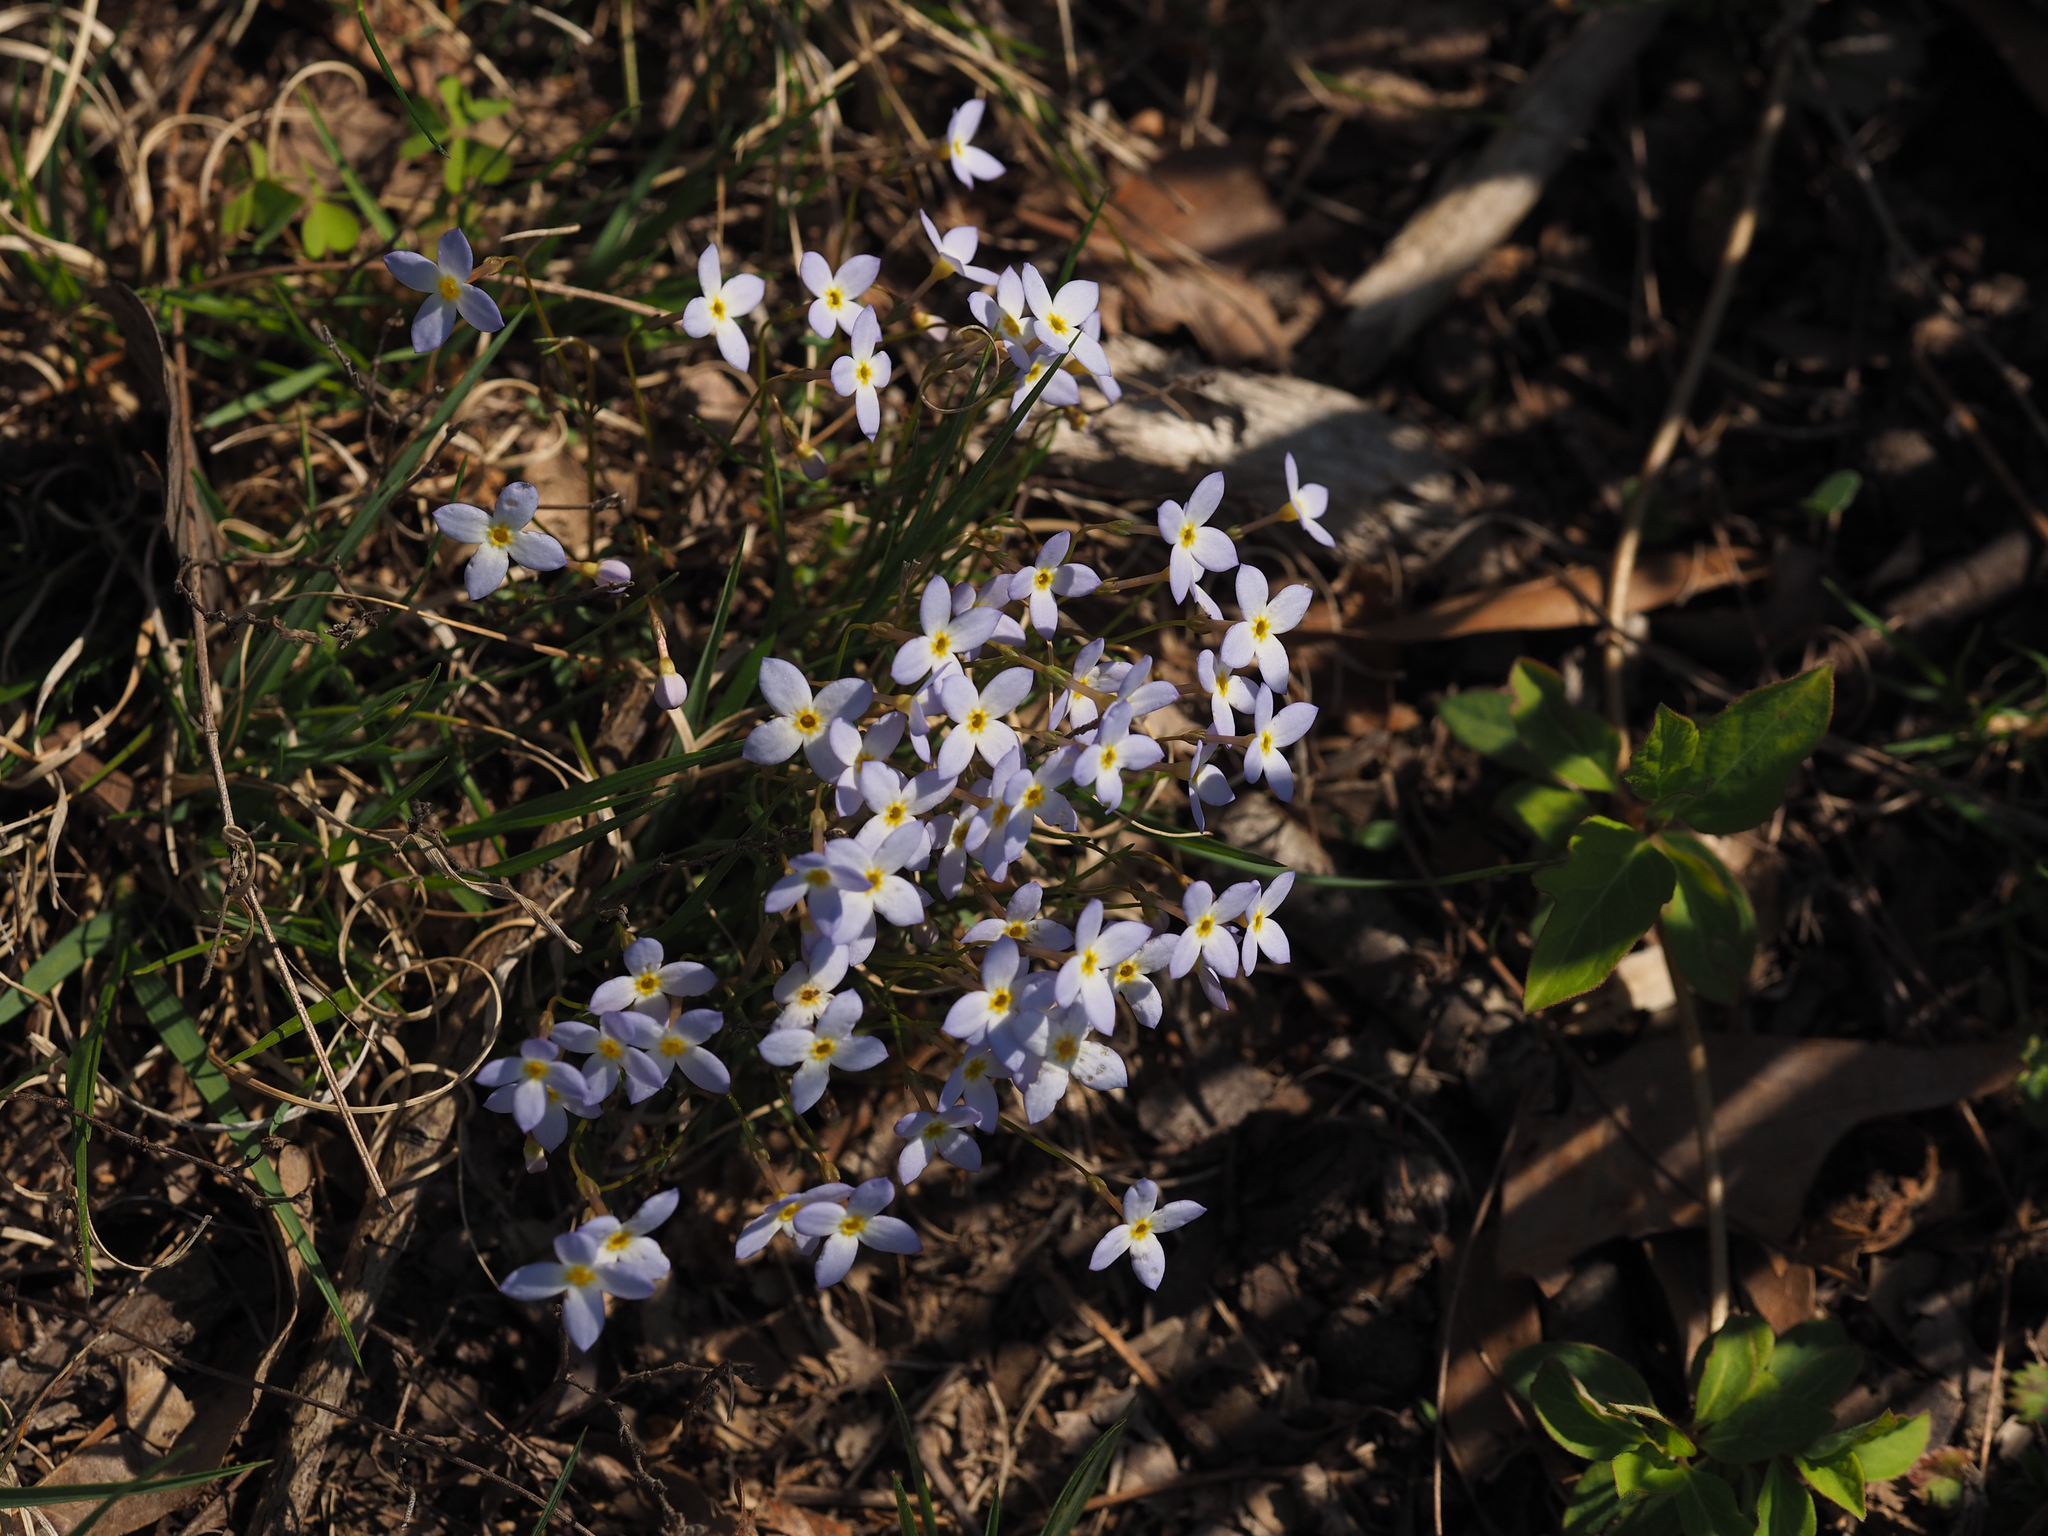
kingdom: Plantae
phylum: Tracheophyta
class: Magnoliopsida
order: Gentianales
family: Rubiaceae
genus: Houstonia
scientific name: Houstonia caerulea
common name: Bluets
